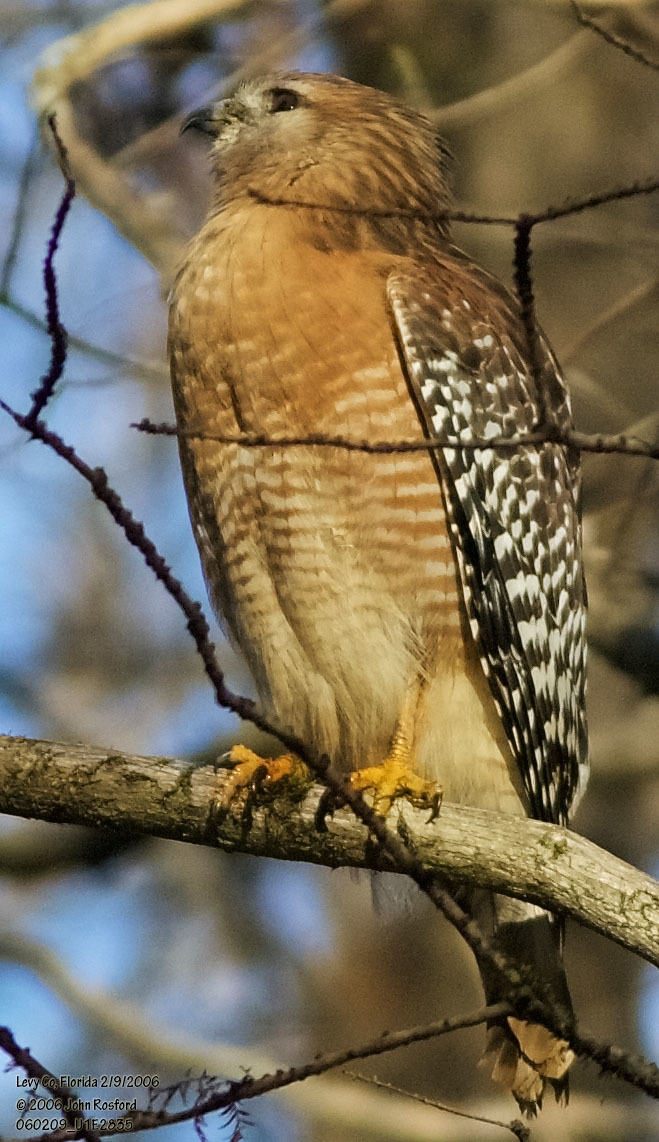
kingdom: Animalia
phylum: Chordata
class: Aves
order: Accipitriformes
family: Accipitridae
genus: Buteo
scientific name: Buteo lineatus
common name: Red-shouldered hawk
